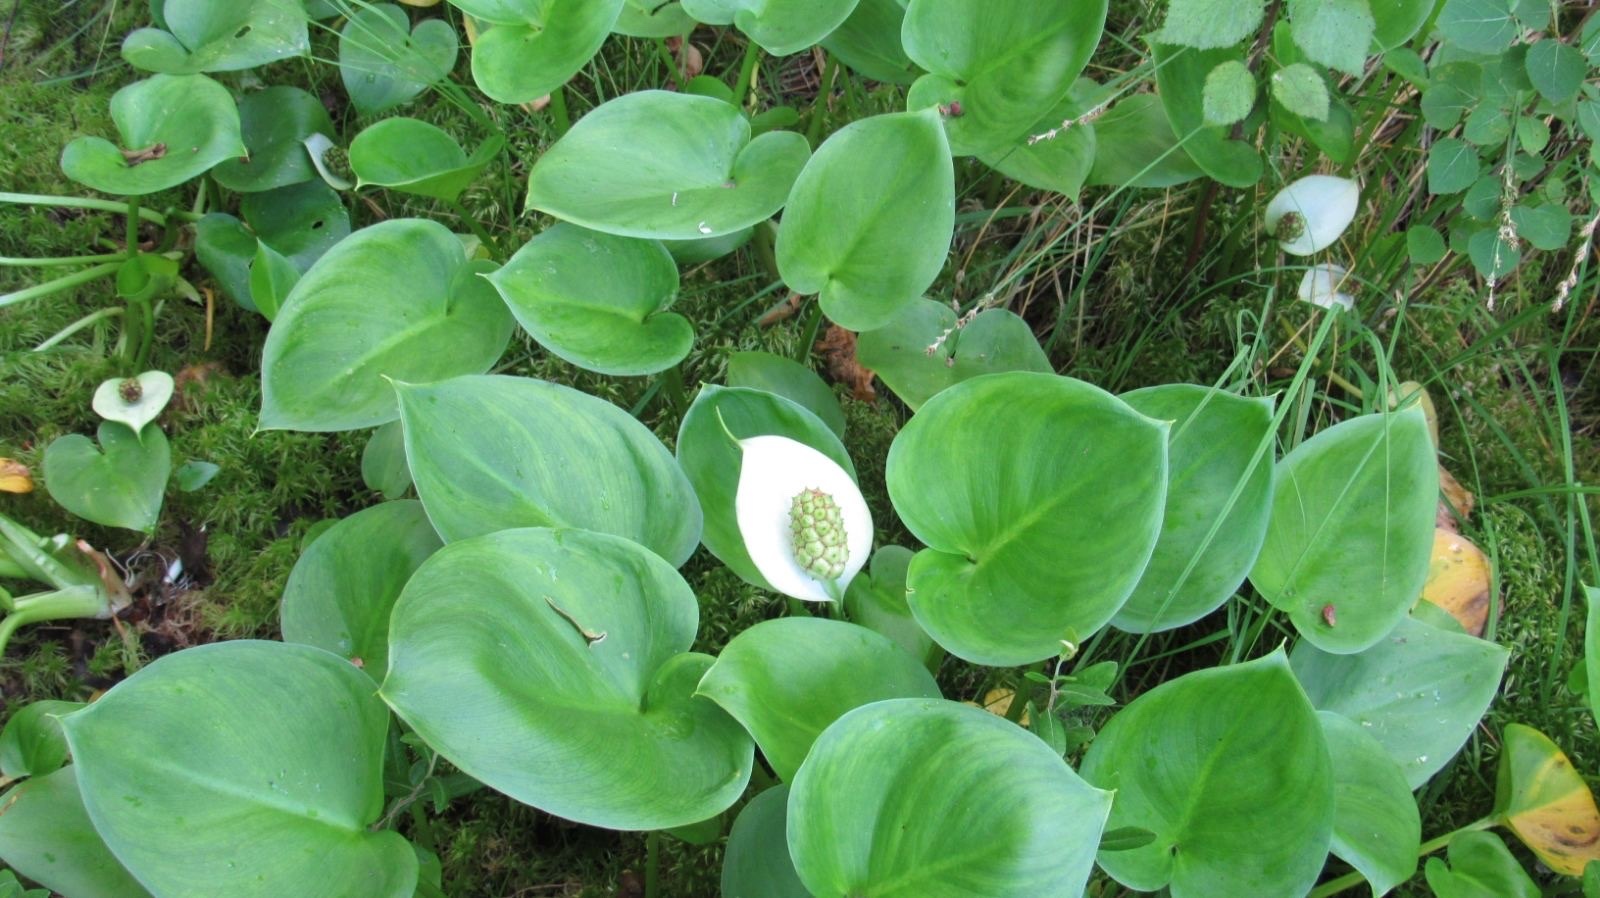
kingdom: Plantae
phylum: Tracheophyta
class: Liliopsida
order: Alismatales
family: Araceae
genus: Calla
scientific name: Calla palustris
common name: Bog arum
